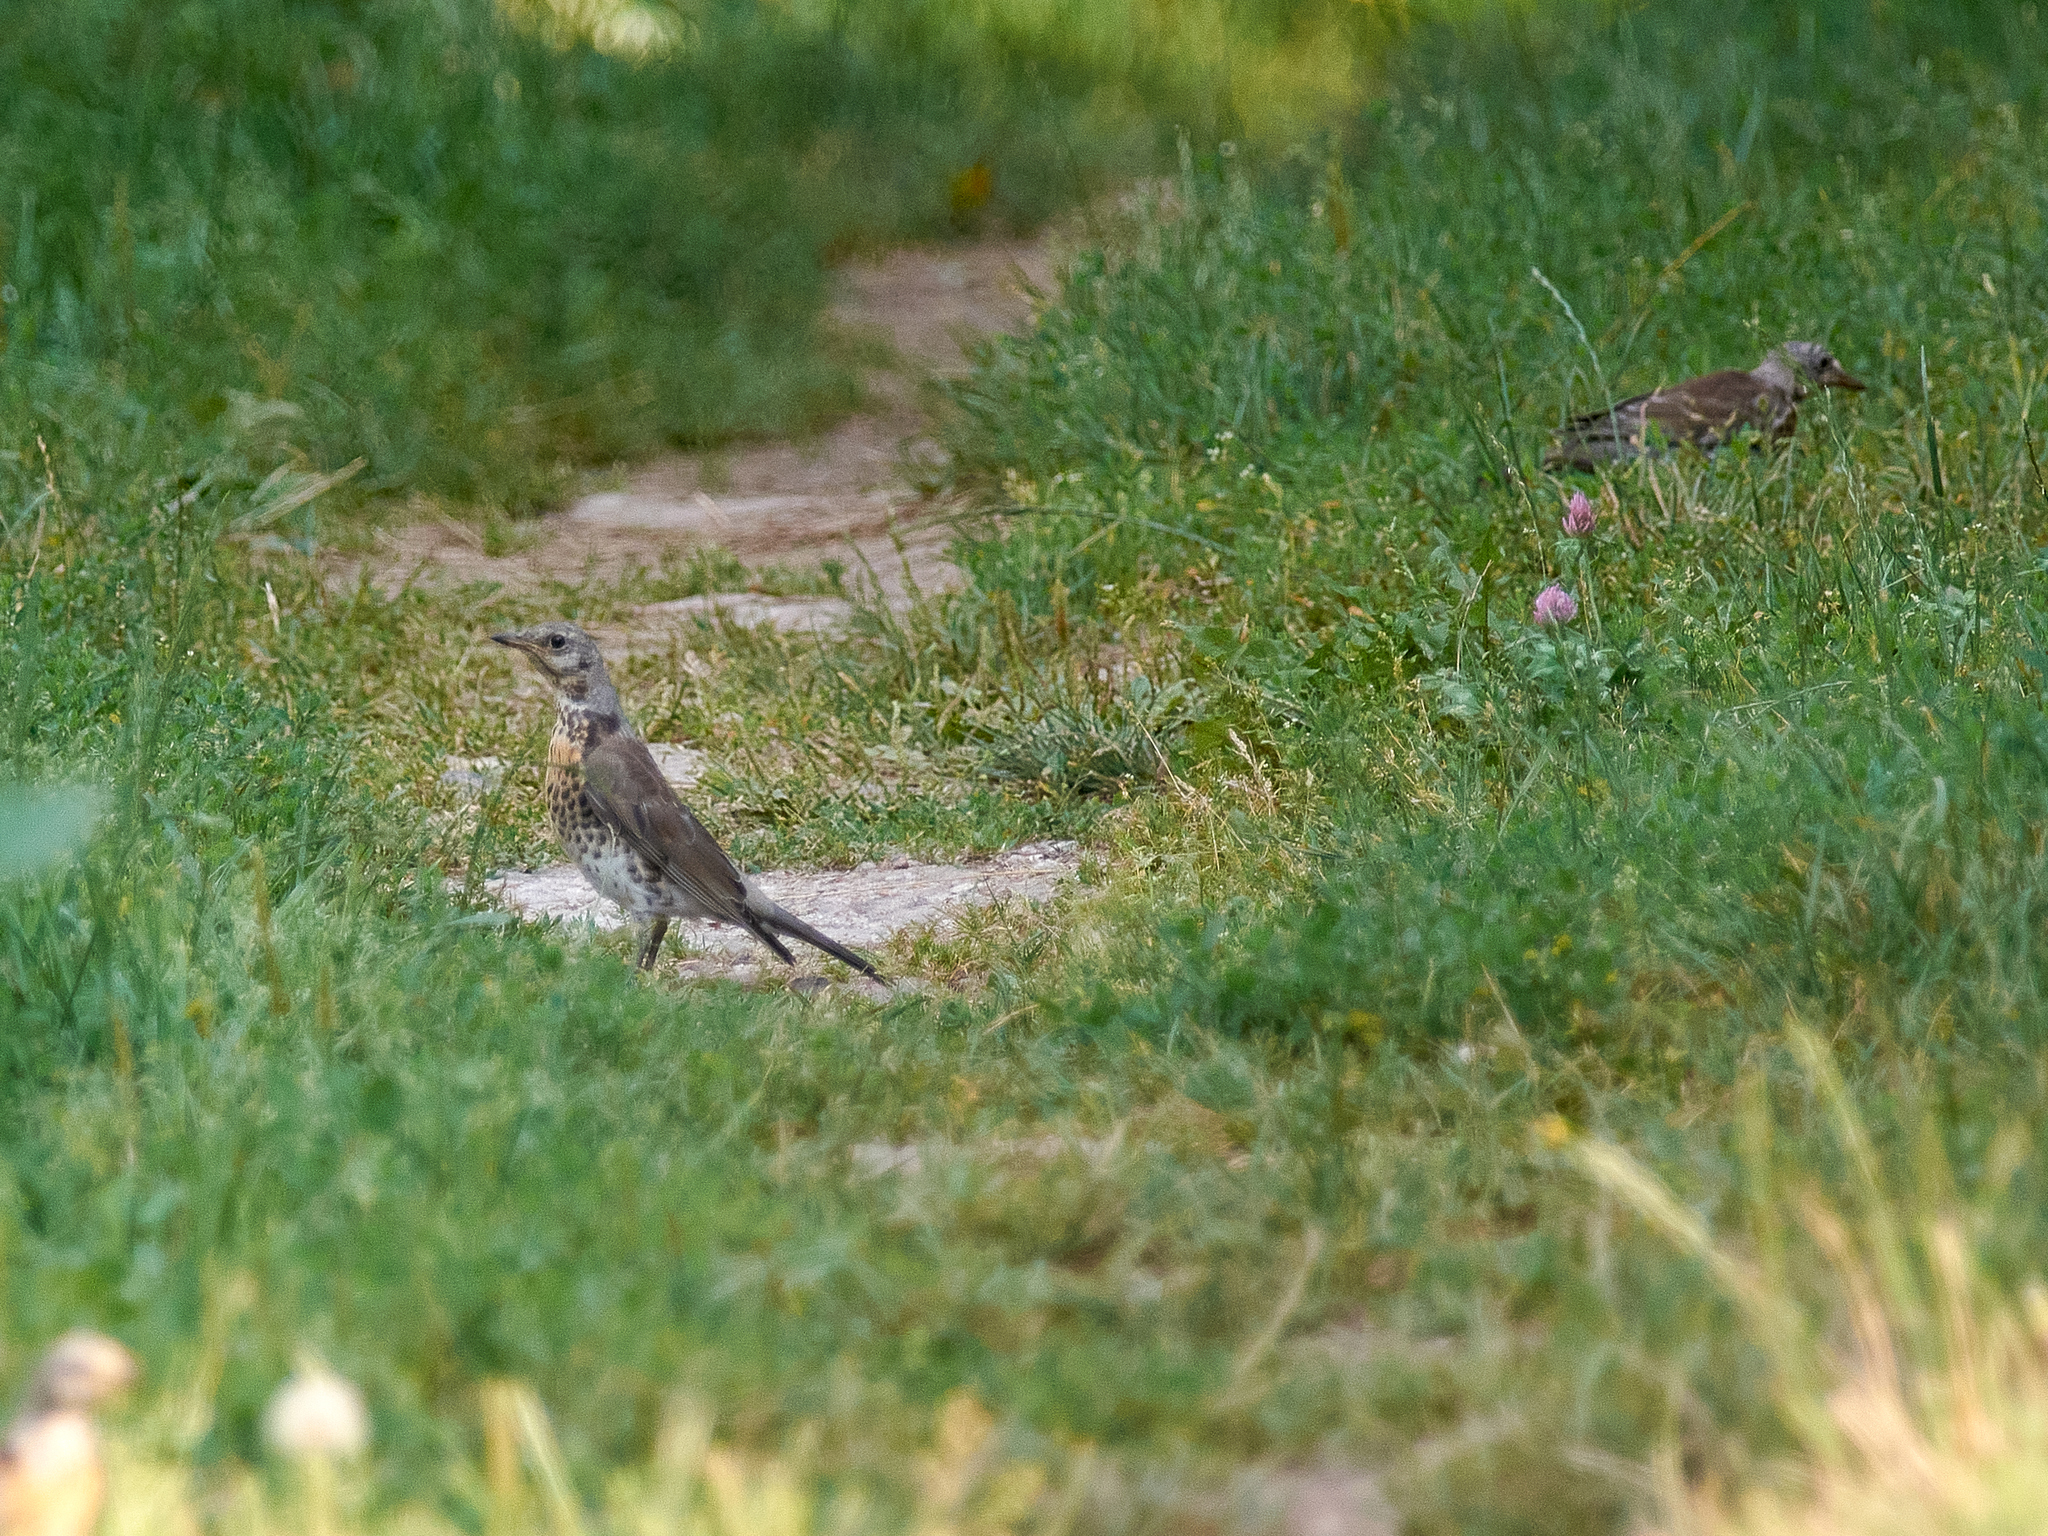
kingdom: Animalia
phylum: Chordata
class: Aves
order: Passeriformes
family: Turdidae
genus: Turdus
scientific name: Turdus pilaris
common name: Fieldfare
